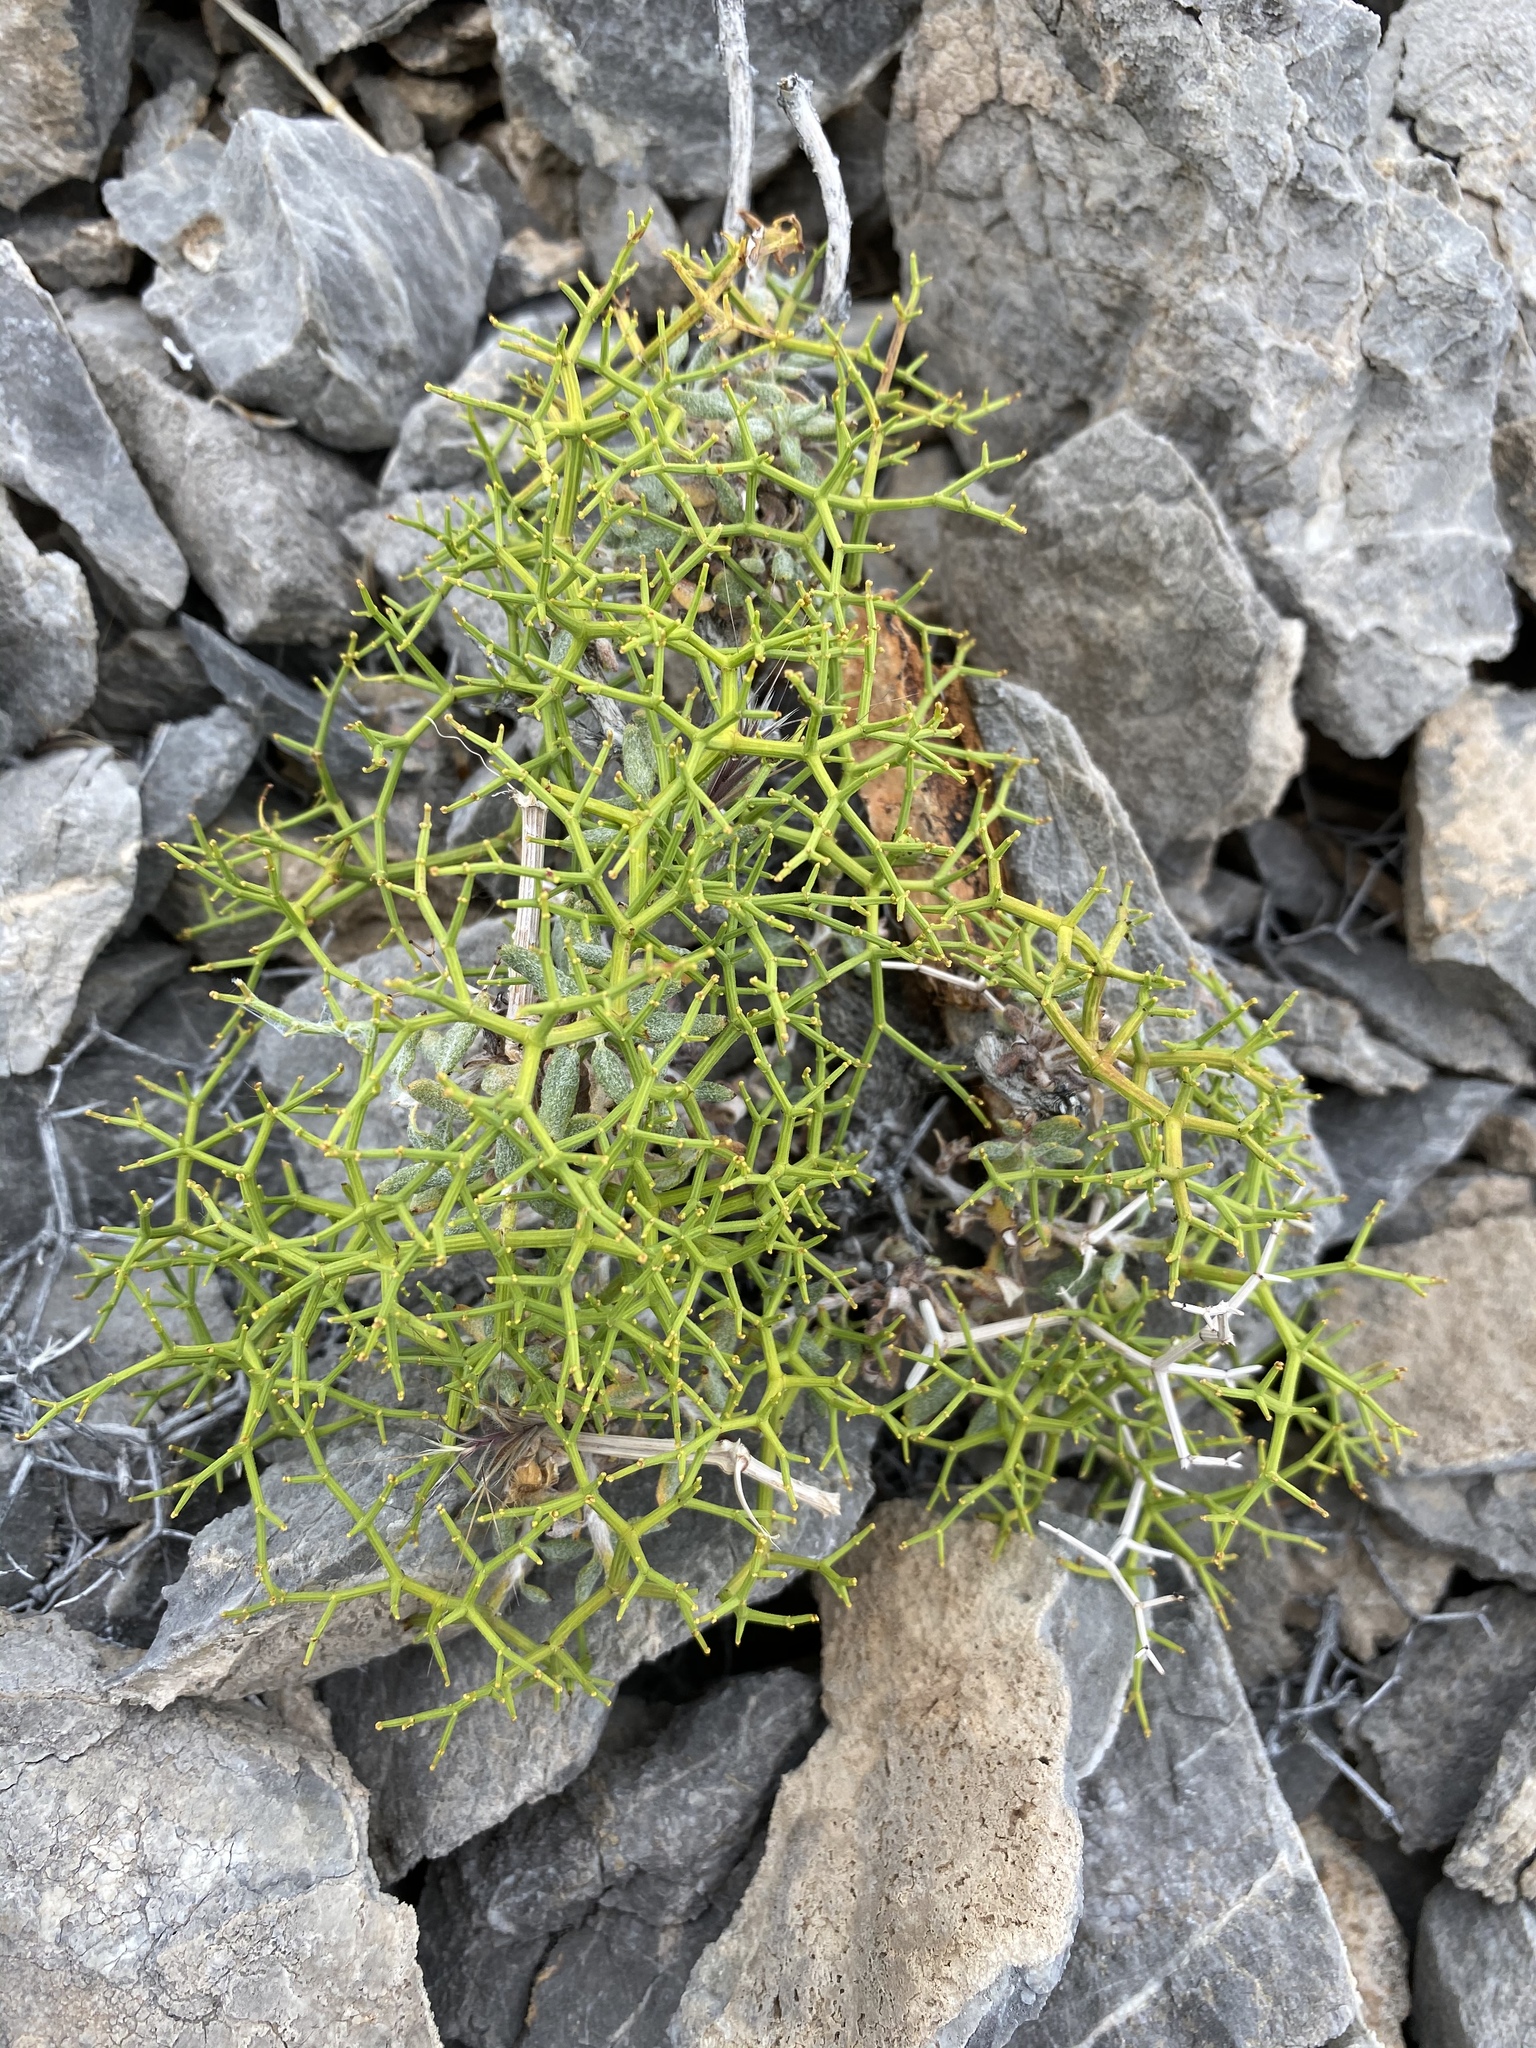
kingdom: Plantae
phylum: Tracheophyta
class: Magnoliopsida
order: Caryophyllales
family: Polygonaceae
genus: Eriogonum
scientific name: Eriogonum heermannii
